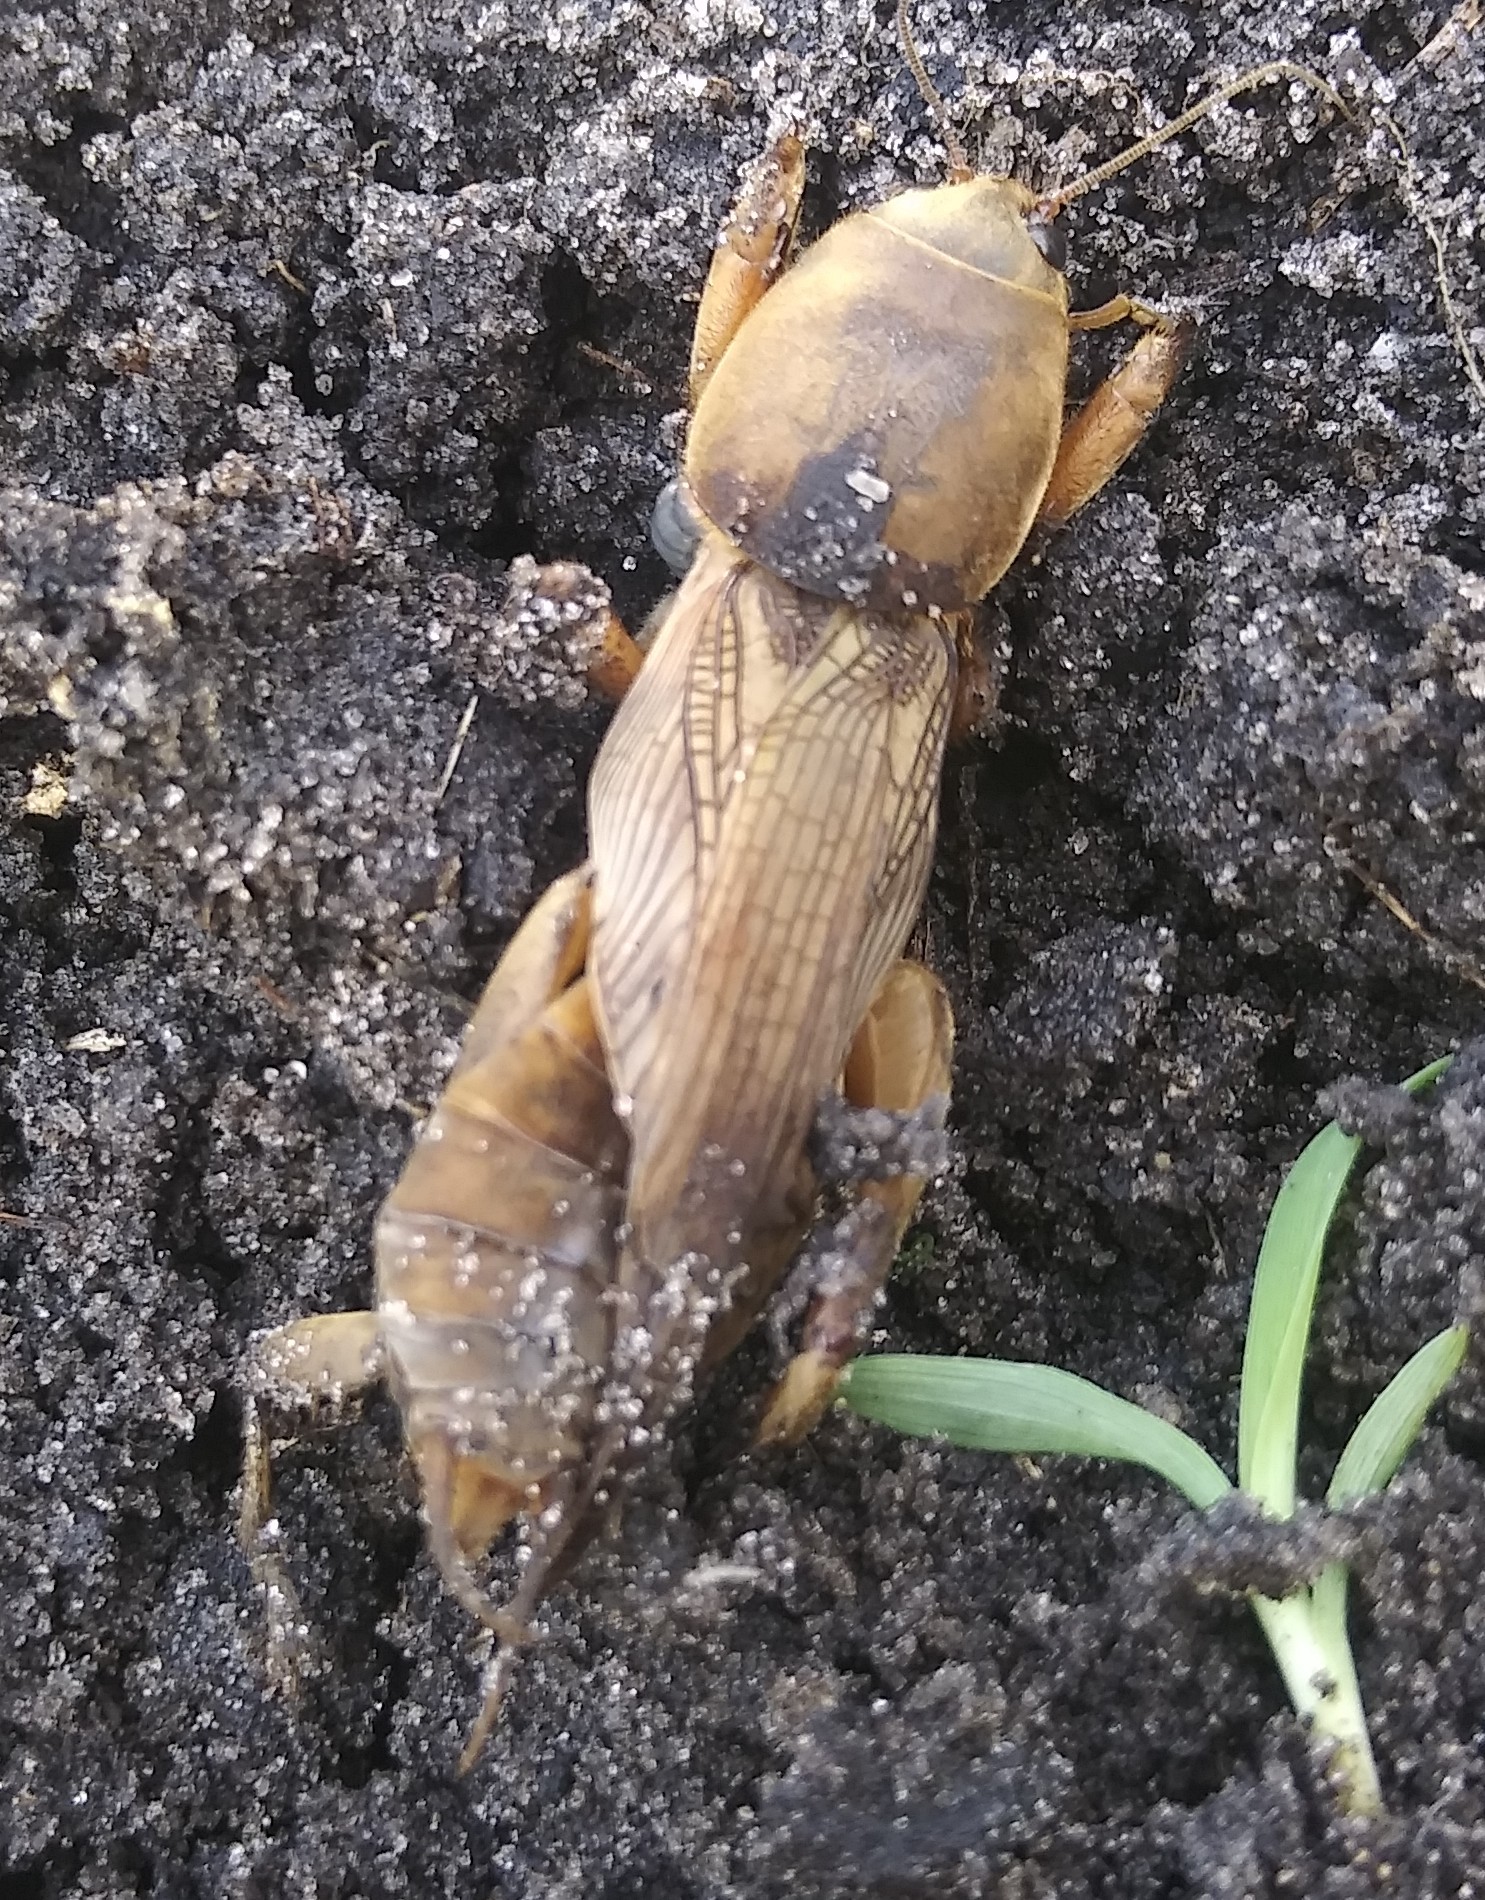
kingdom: Animalia
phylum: Arthropoda
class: Insecta
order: Orthoptera
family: Gryllotalpidae
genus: Neoscapteriscus
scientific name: Neoscapteriscus vicinus
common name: Tawny mole cricket
